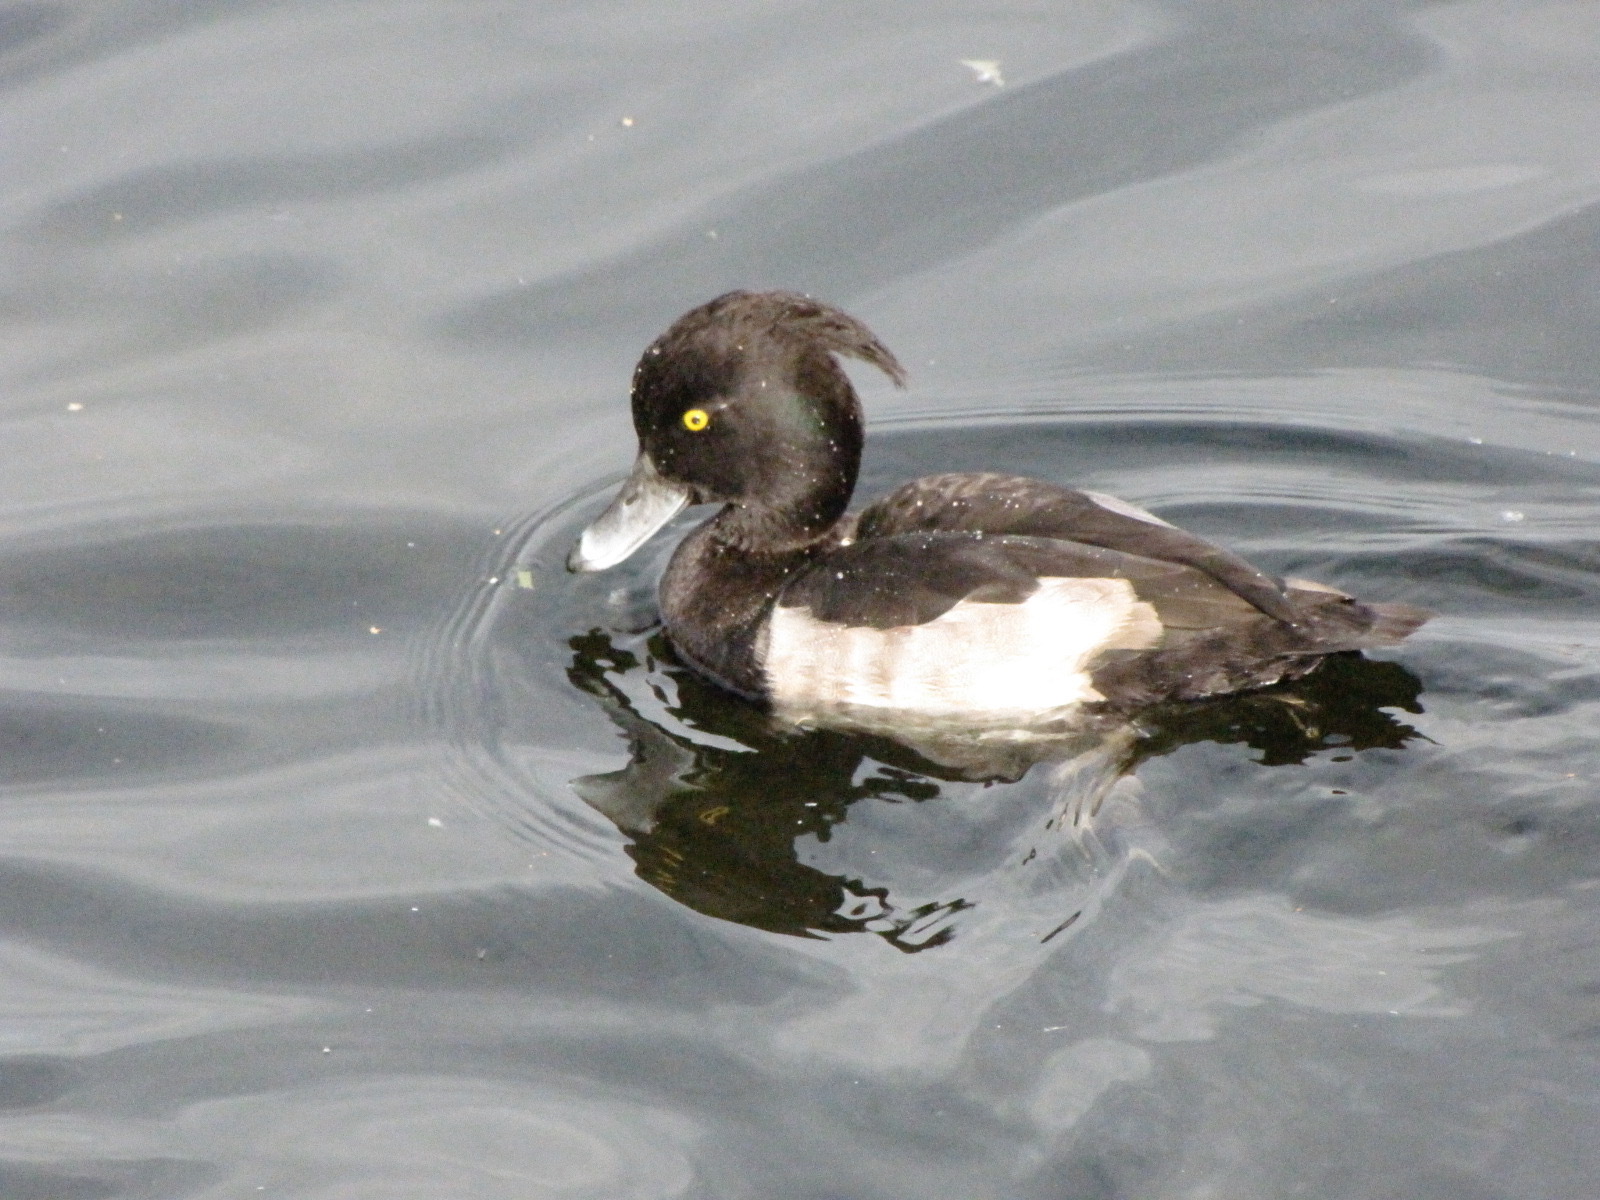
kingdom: Animalia
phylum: Chordata
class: Aves
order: Anseriformes
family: Anatidae
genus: Aythya
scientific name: Aythya fuligula
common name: Tufted duck
